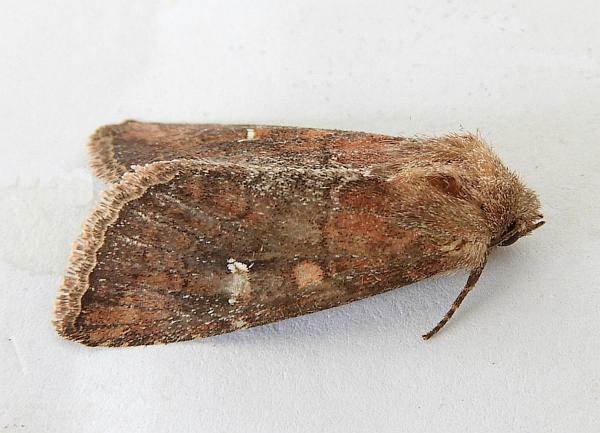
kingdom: Animalia
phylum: Arthropoda
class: Insecta
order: Lepidoptera
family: Noctuidae
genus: Lophoceramica
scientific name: Lophoceramica artega
